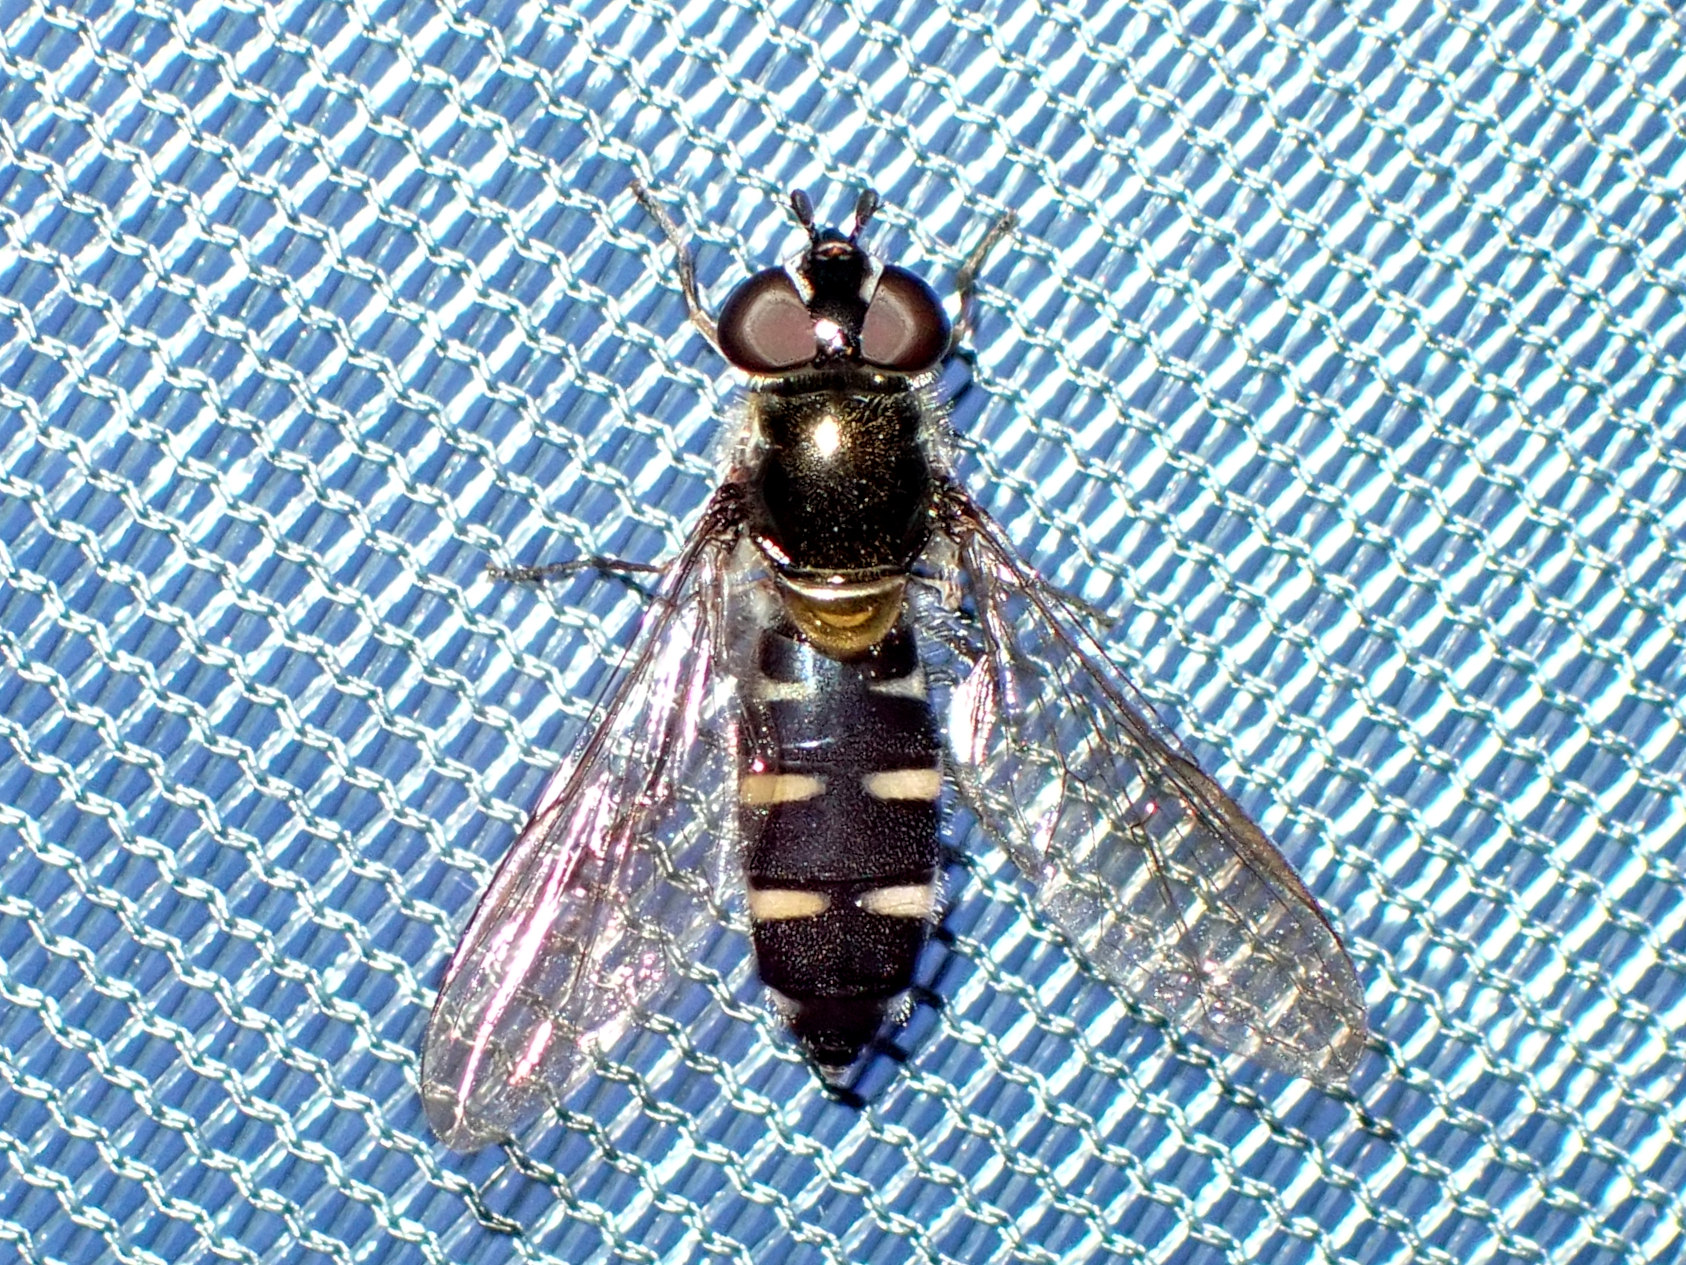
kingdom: Animalia
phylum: Arthropoda
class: Insecta
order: Diptera
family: Syrphidae
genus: Melangyna
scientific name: Melangyna novaezelandiae
